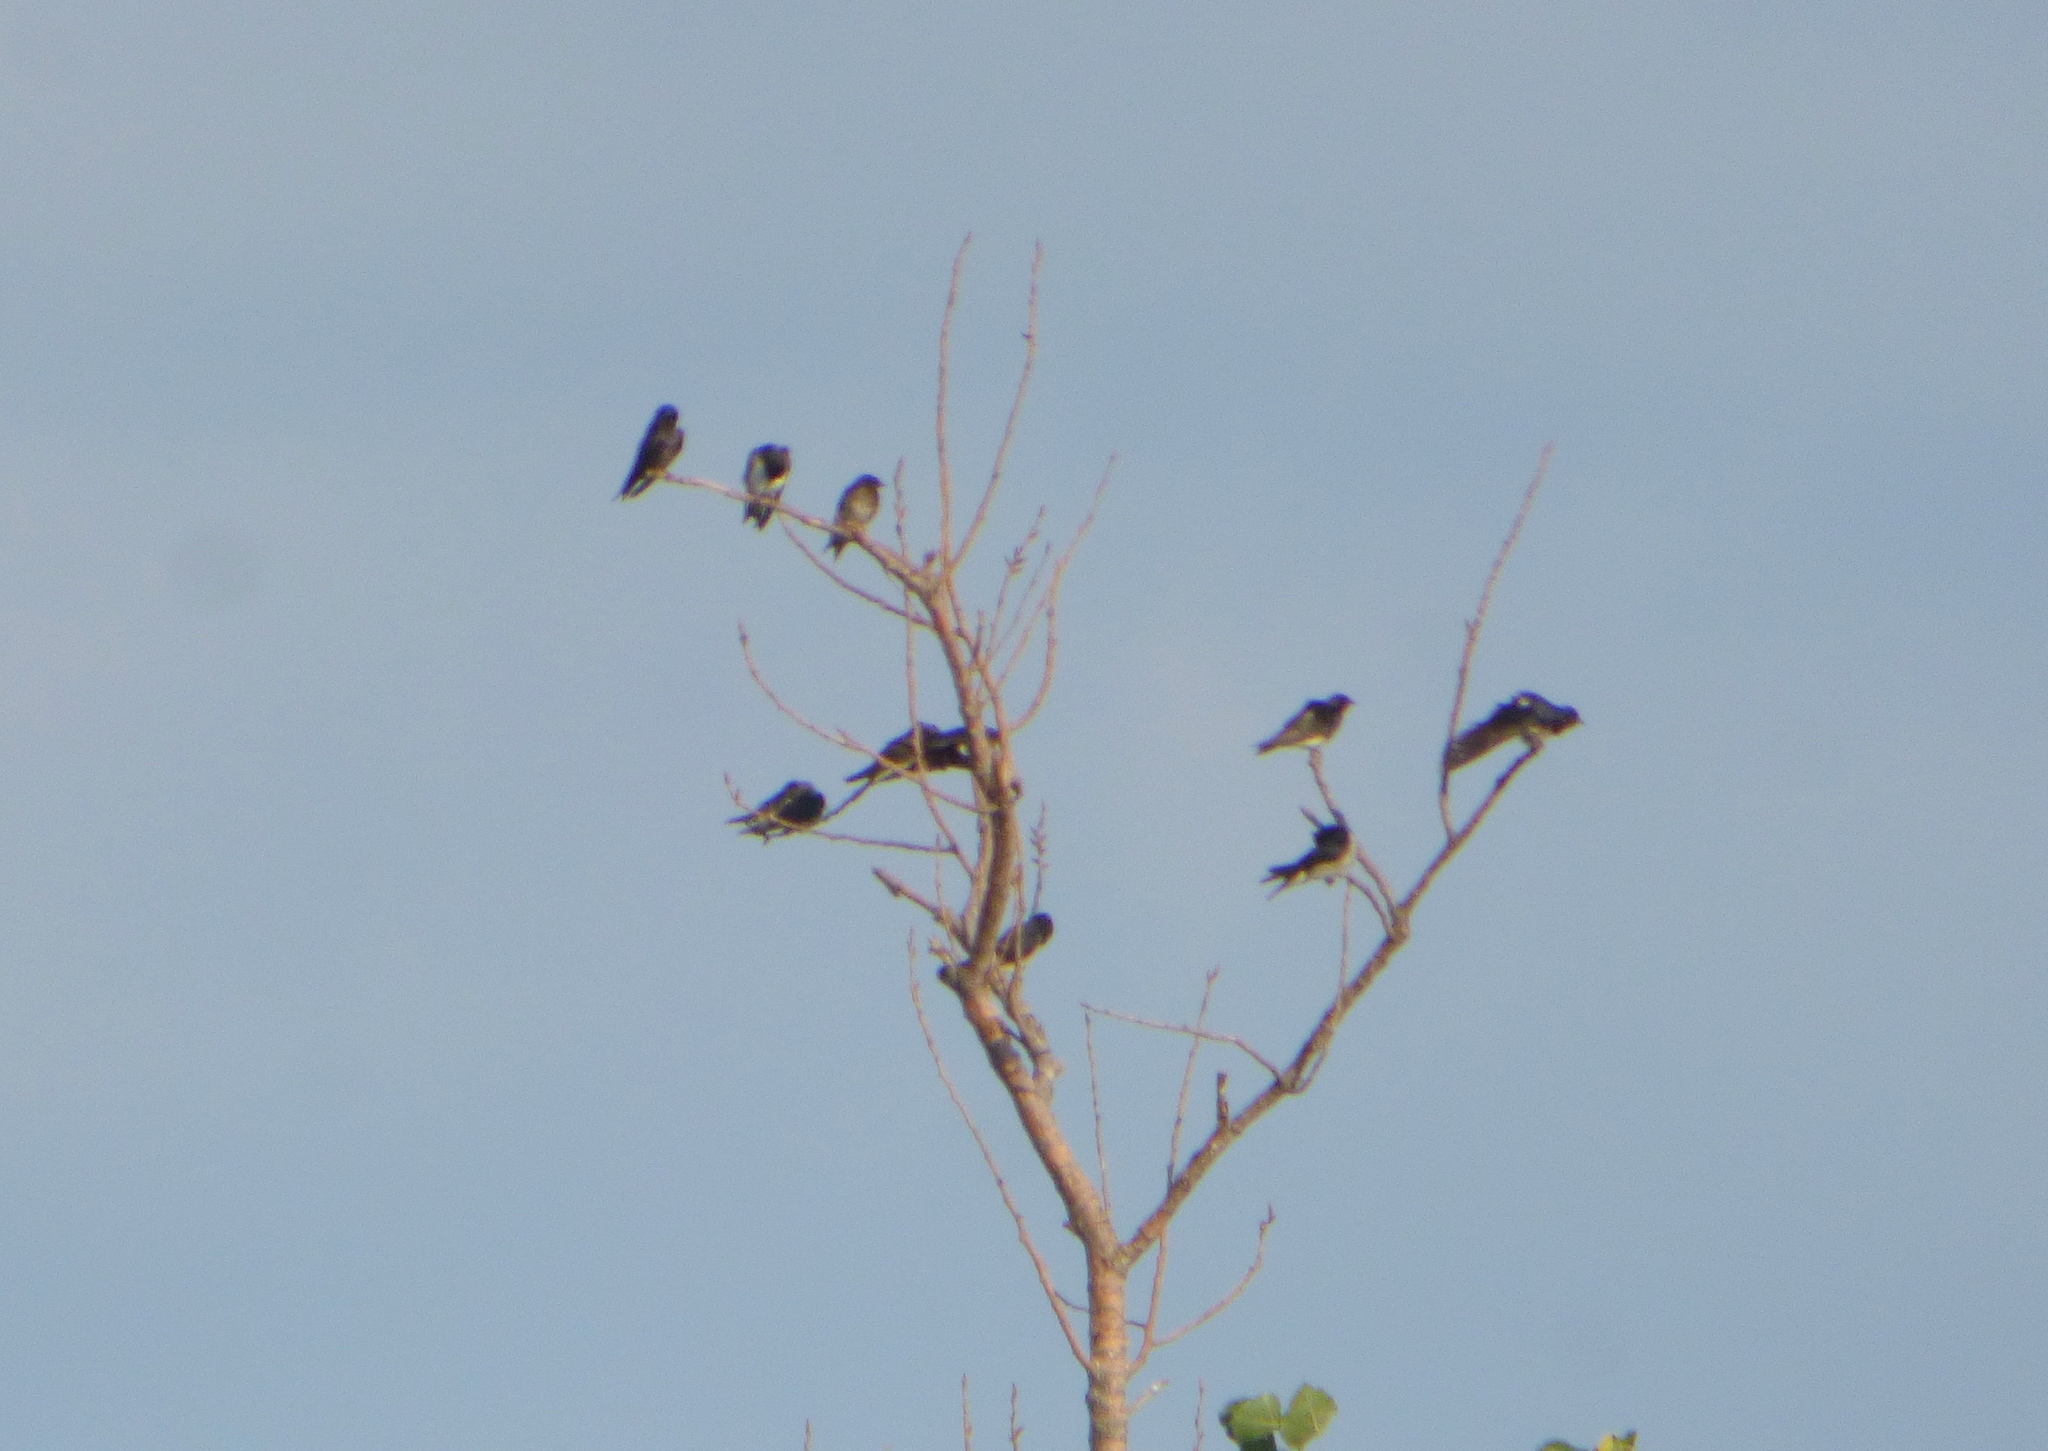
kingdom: Animalia
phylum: Chordata
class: Aves
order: Passeriformes
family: Hirundinidae
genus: Progne
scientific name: Progne chalybea
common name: Grey-breasted martin
